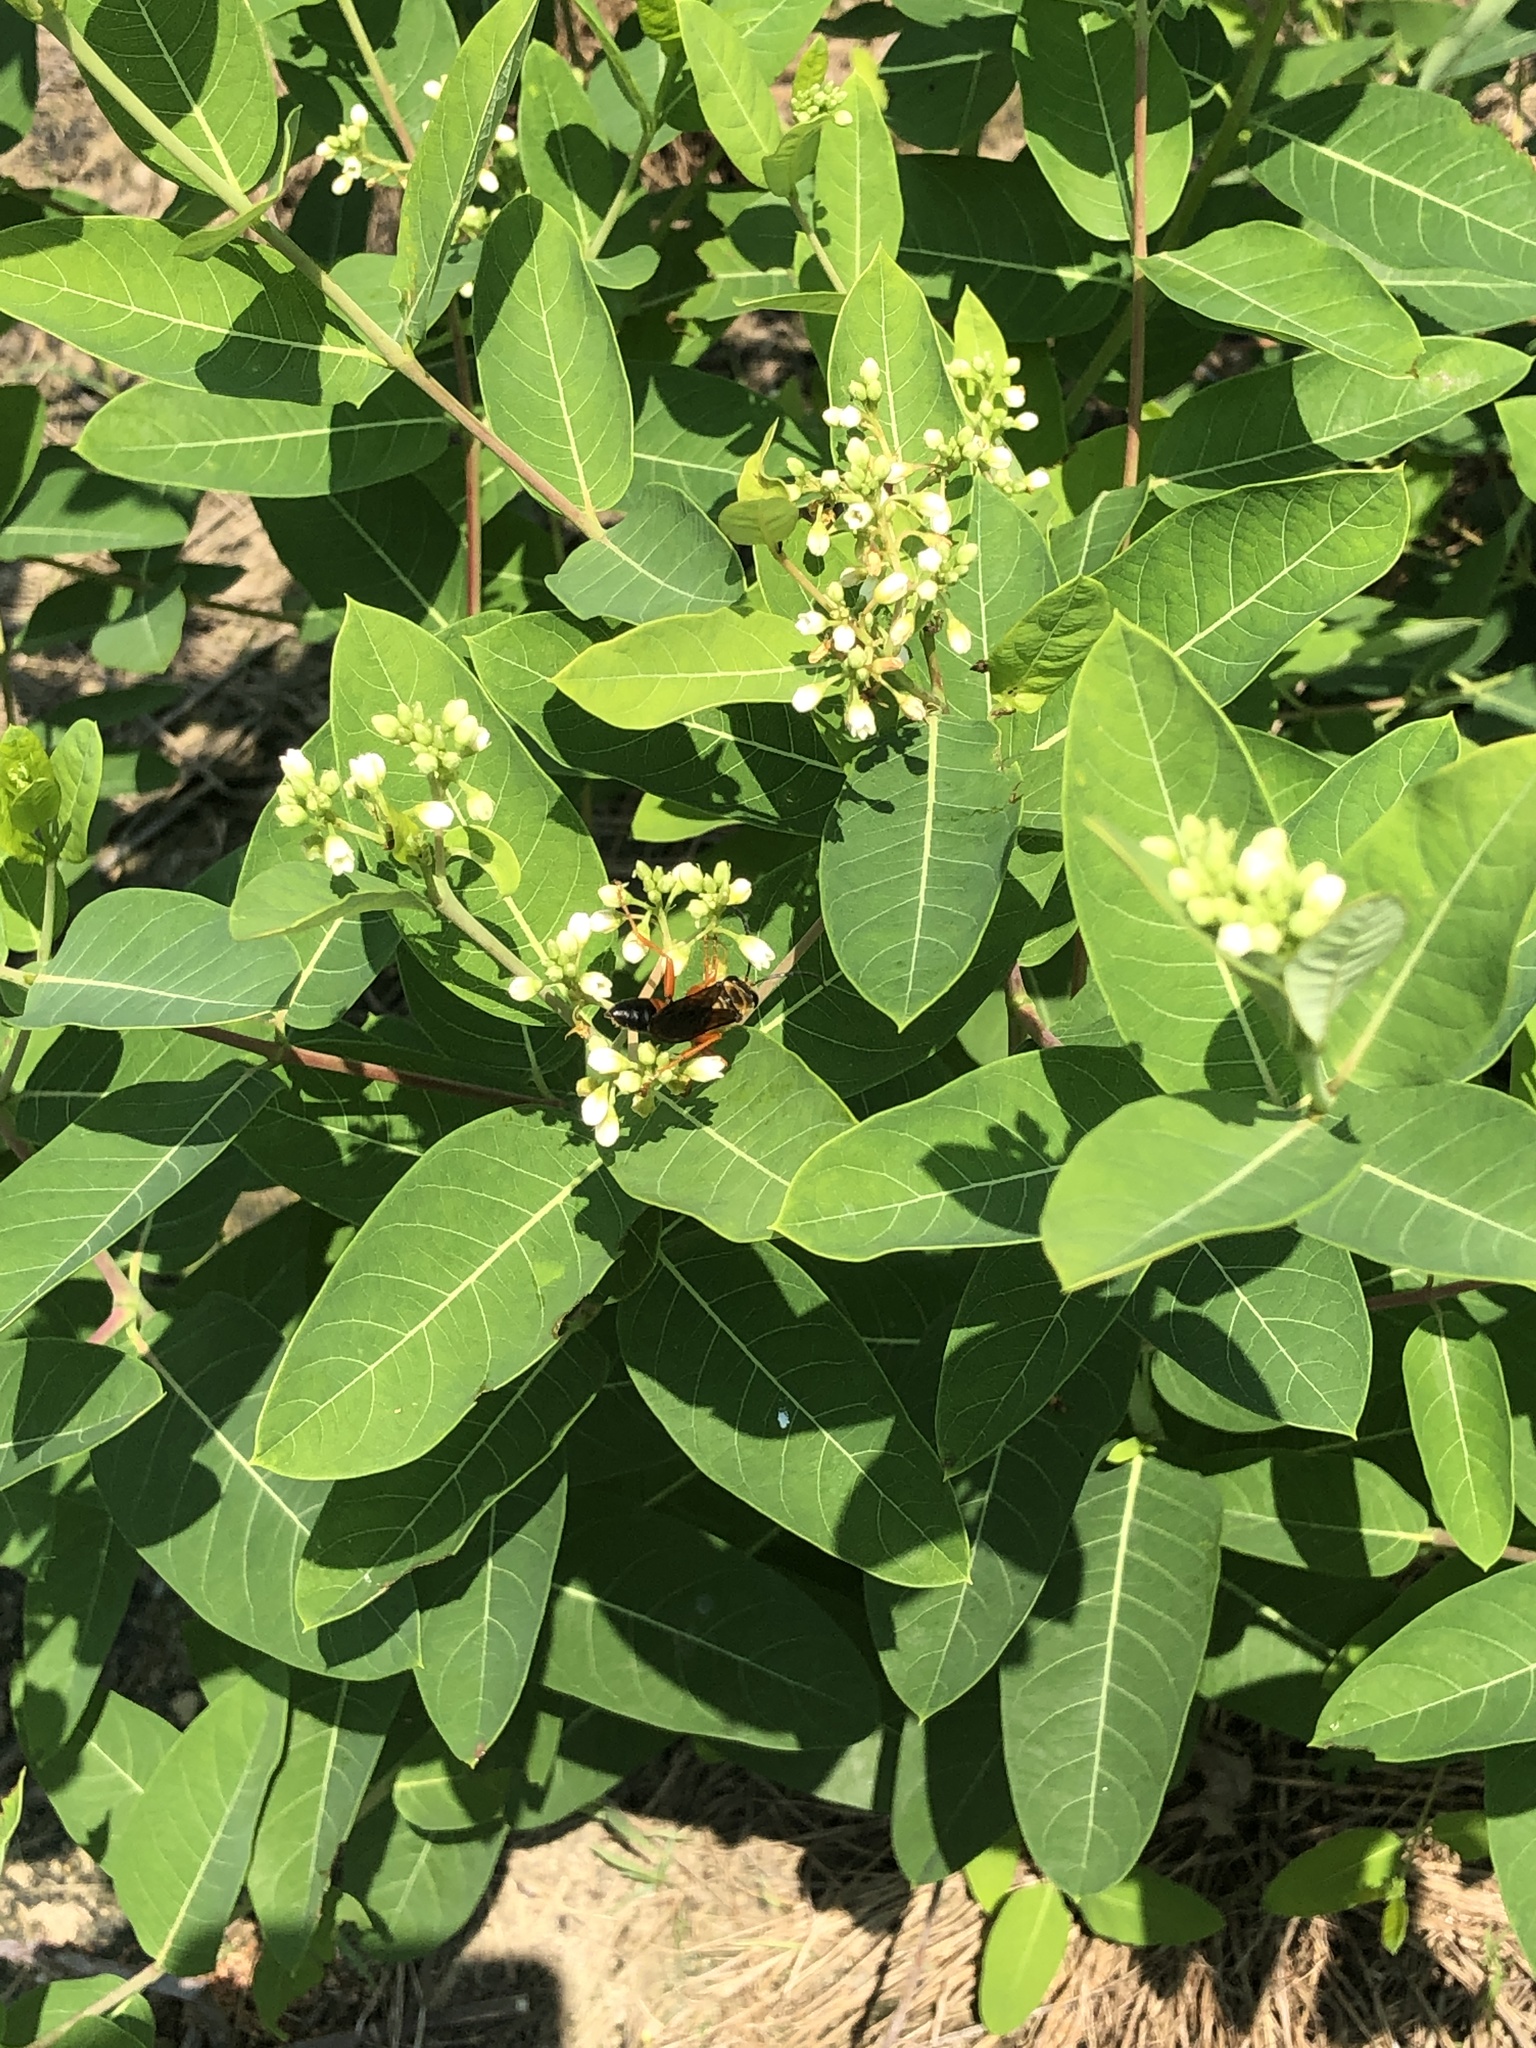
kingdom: Animalia
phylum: Arthropoda
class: Insecta
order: Hymenoptera
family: Sphecidae
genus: Sphex
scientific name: Sphex ichneumoneus
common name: Great golden digger wasp
